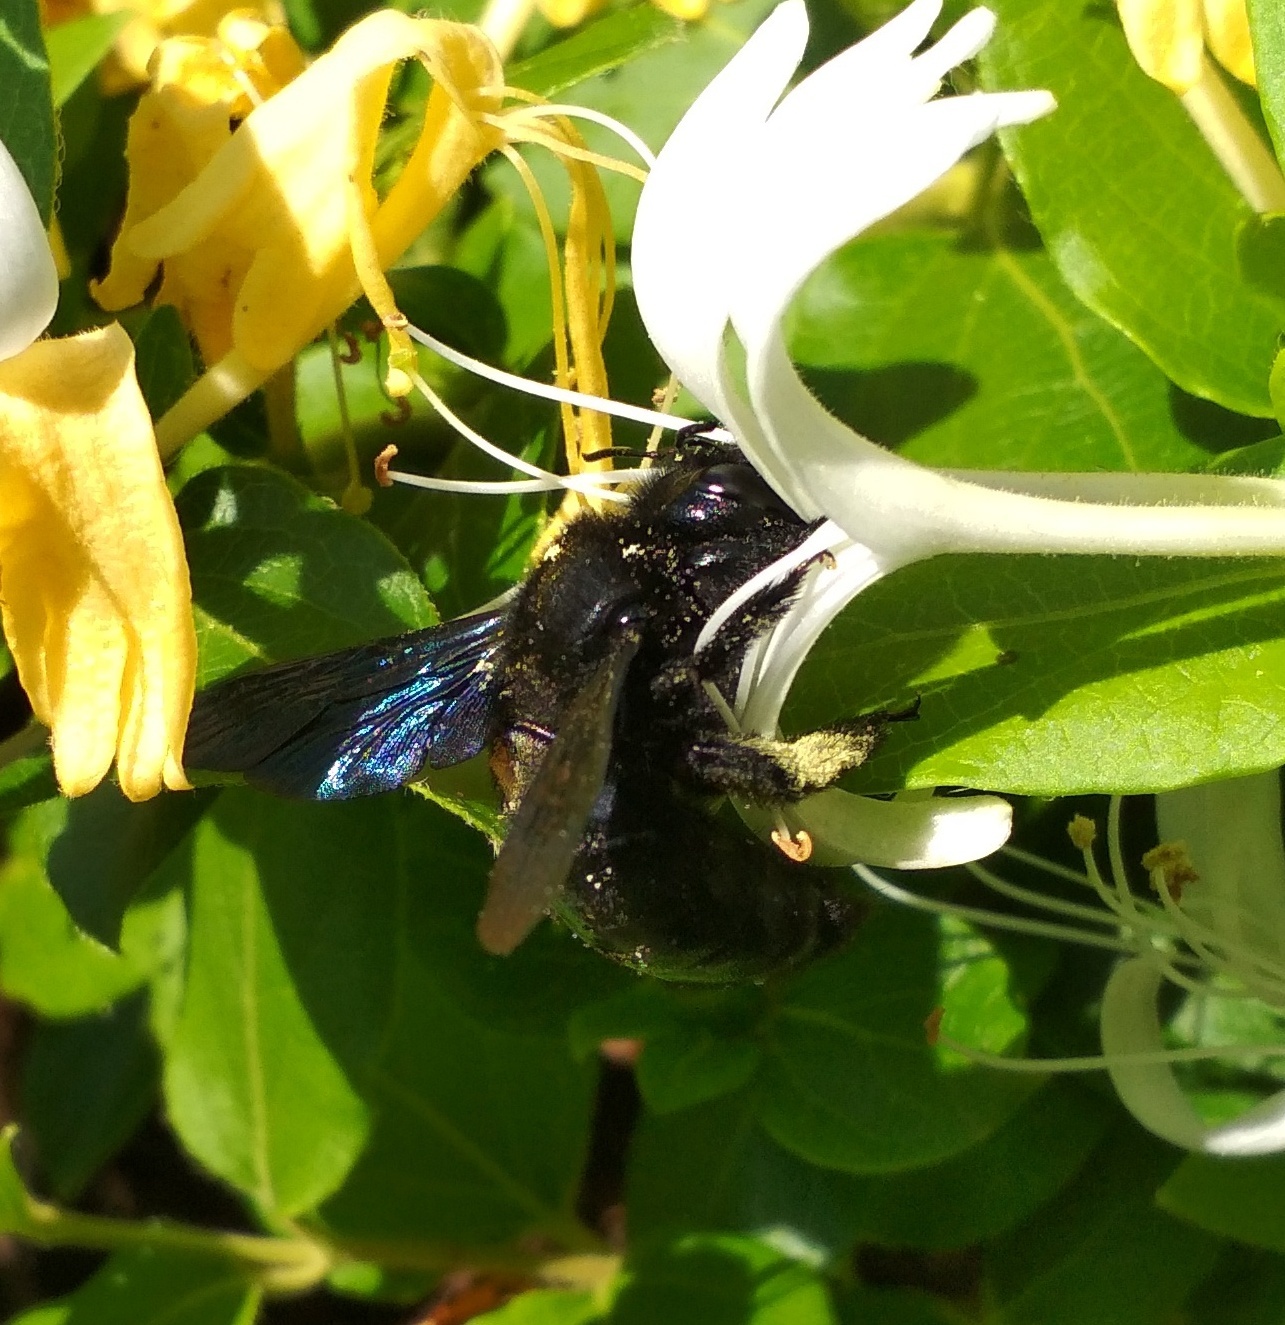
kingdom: Animalia
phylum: Arthropoda
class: Insecta
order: Hymenoptera
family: Apidae
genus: Xylocopa
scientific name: Xylocopa violacea
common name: Violet carpenter bee
